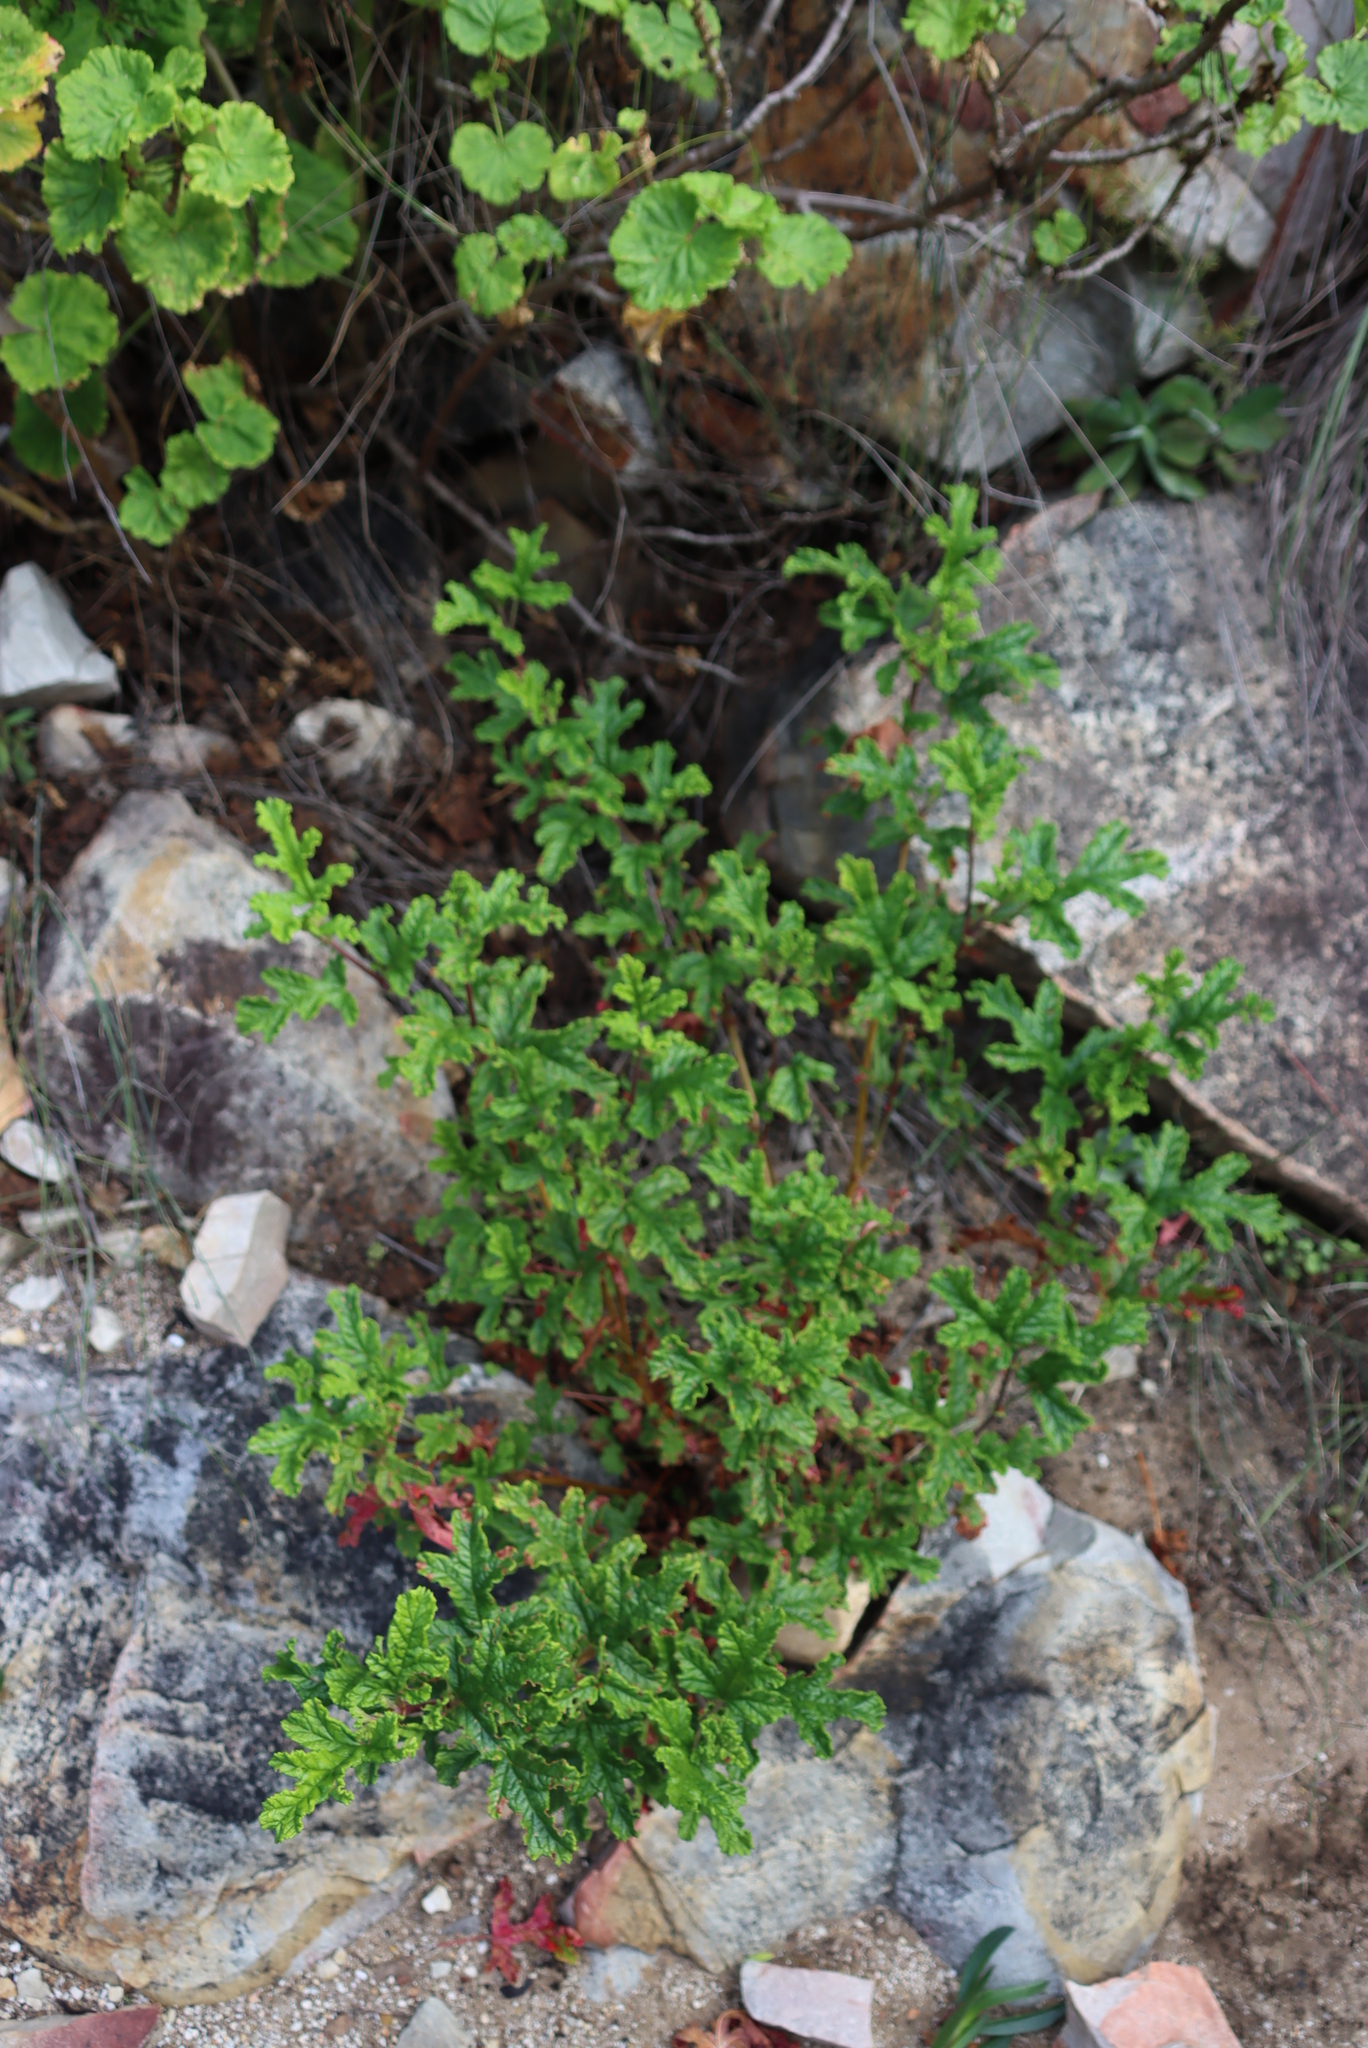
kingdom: Plantae
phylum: Tracheophyta
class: Magnoliopsida
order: Geraniales
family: Geraniaceae
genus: Pelargonium
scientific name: Pelargonium quercifolium
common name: Oakleaf geranium
